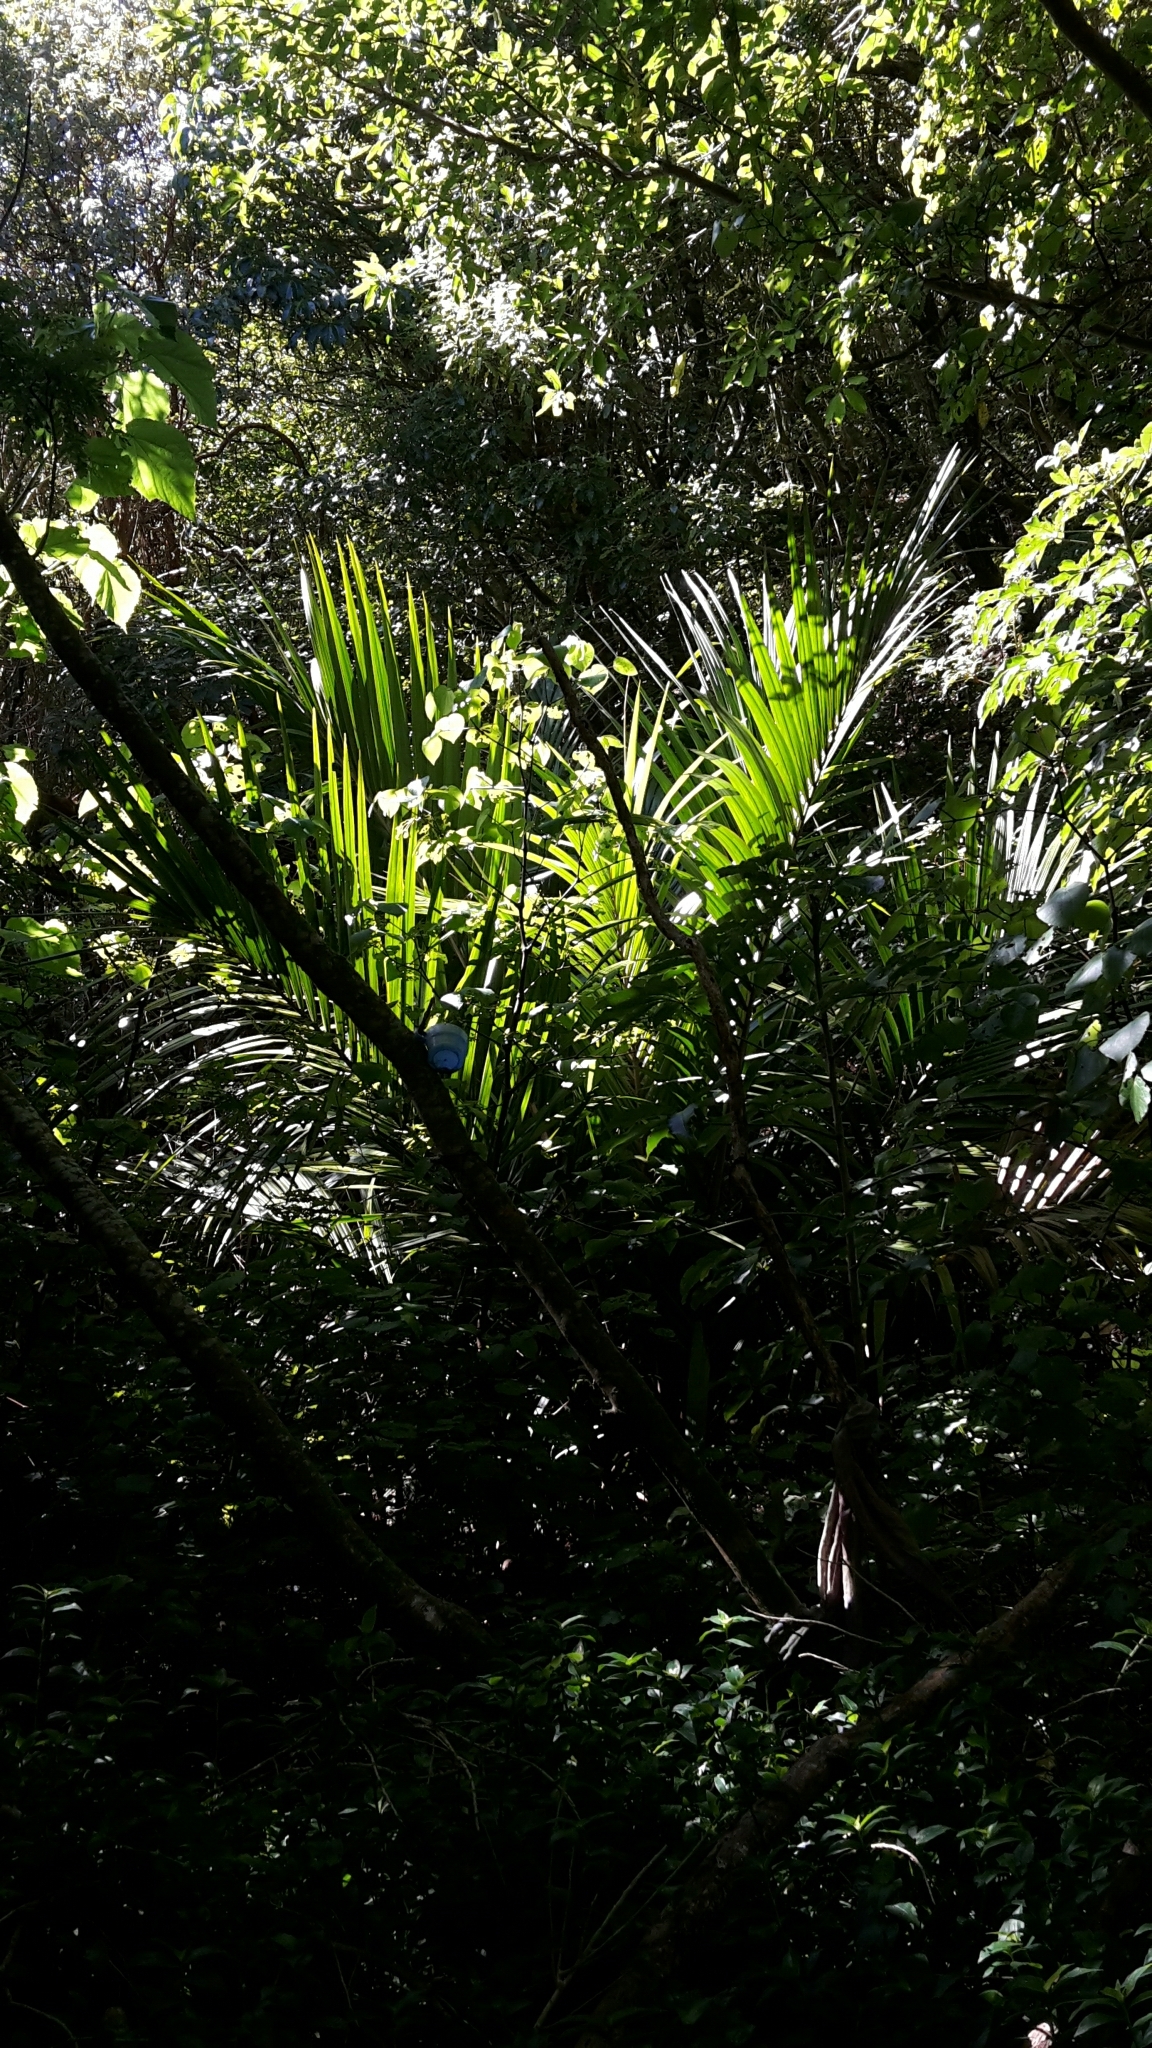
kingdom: Plantae
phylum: Tracheophyta
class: Liliopsida
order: Arecales
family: Arecaceae
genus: Rhopalostylis
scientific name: Rhopalostylis sapida
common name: Feather-duster palm
